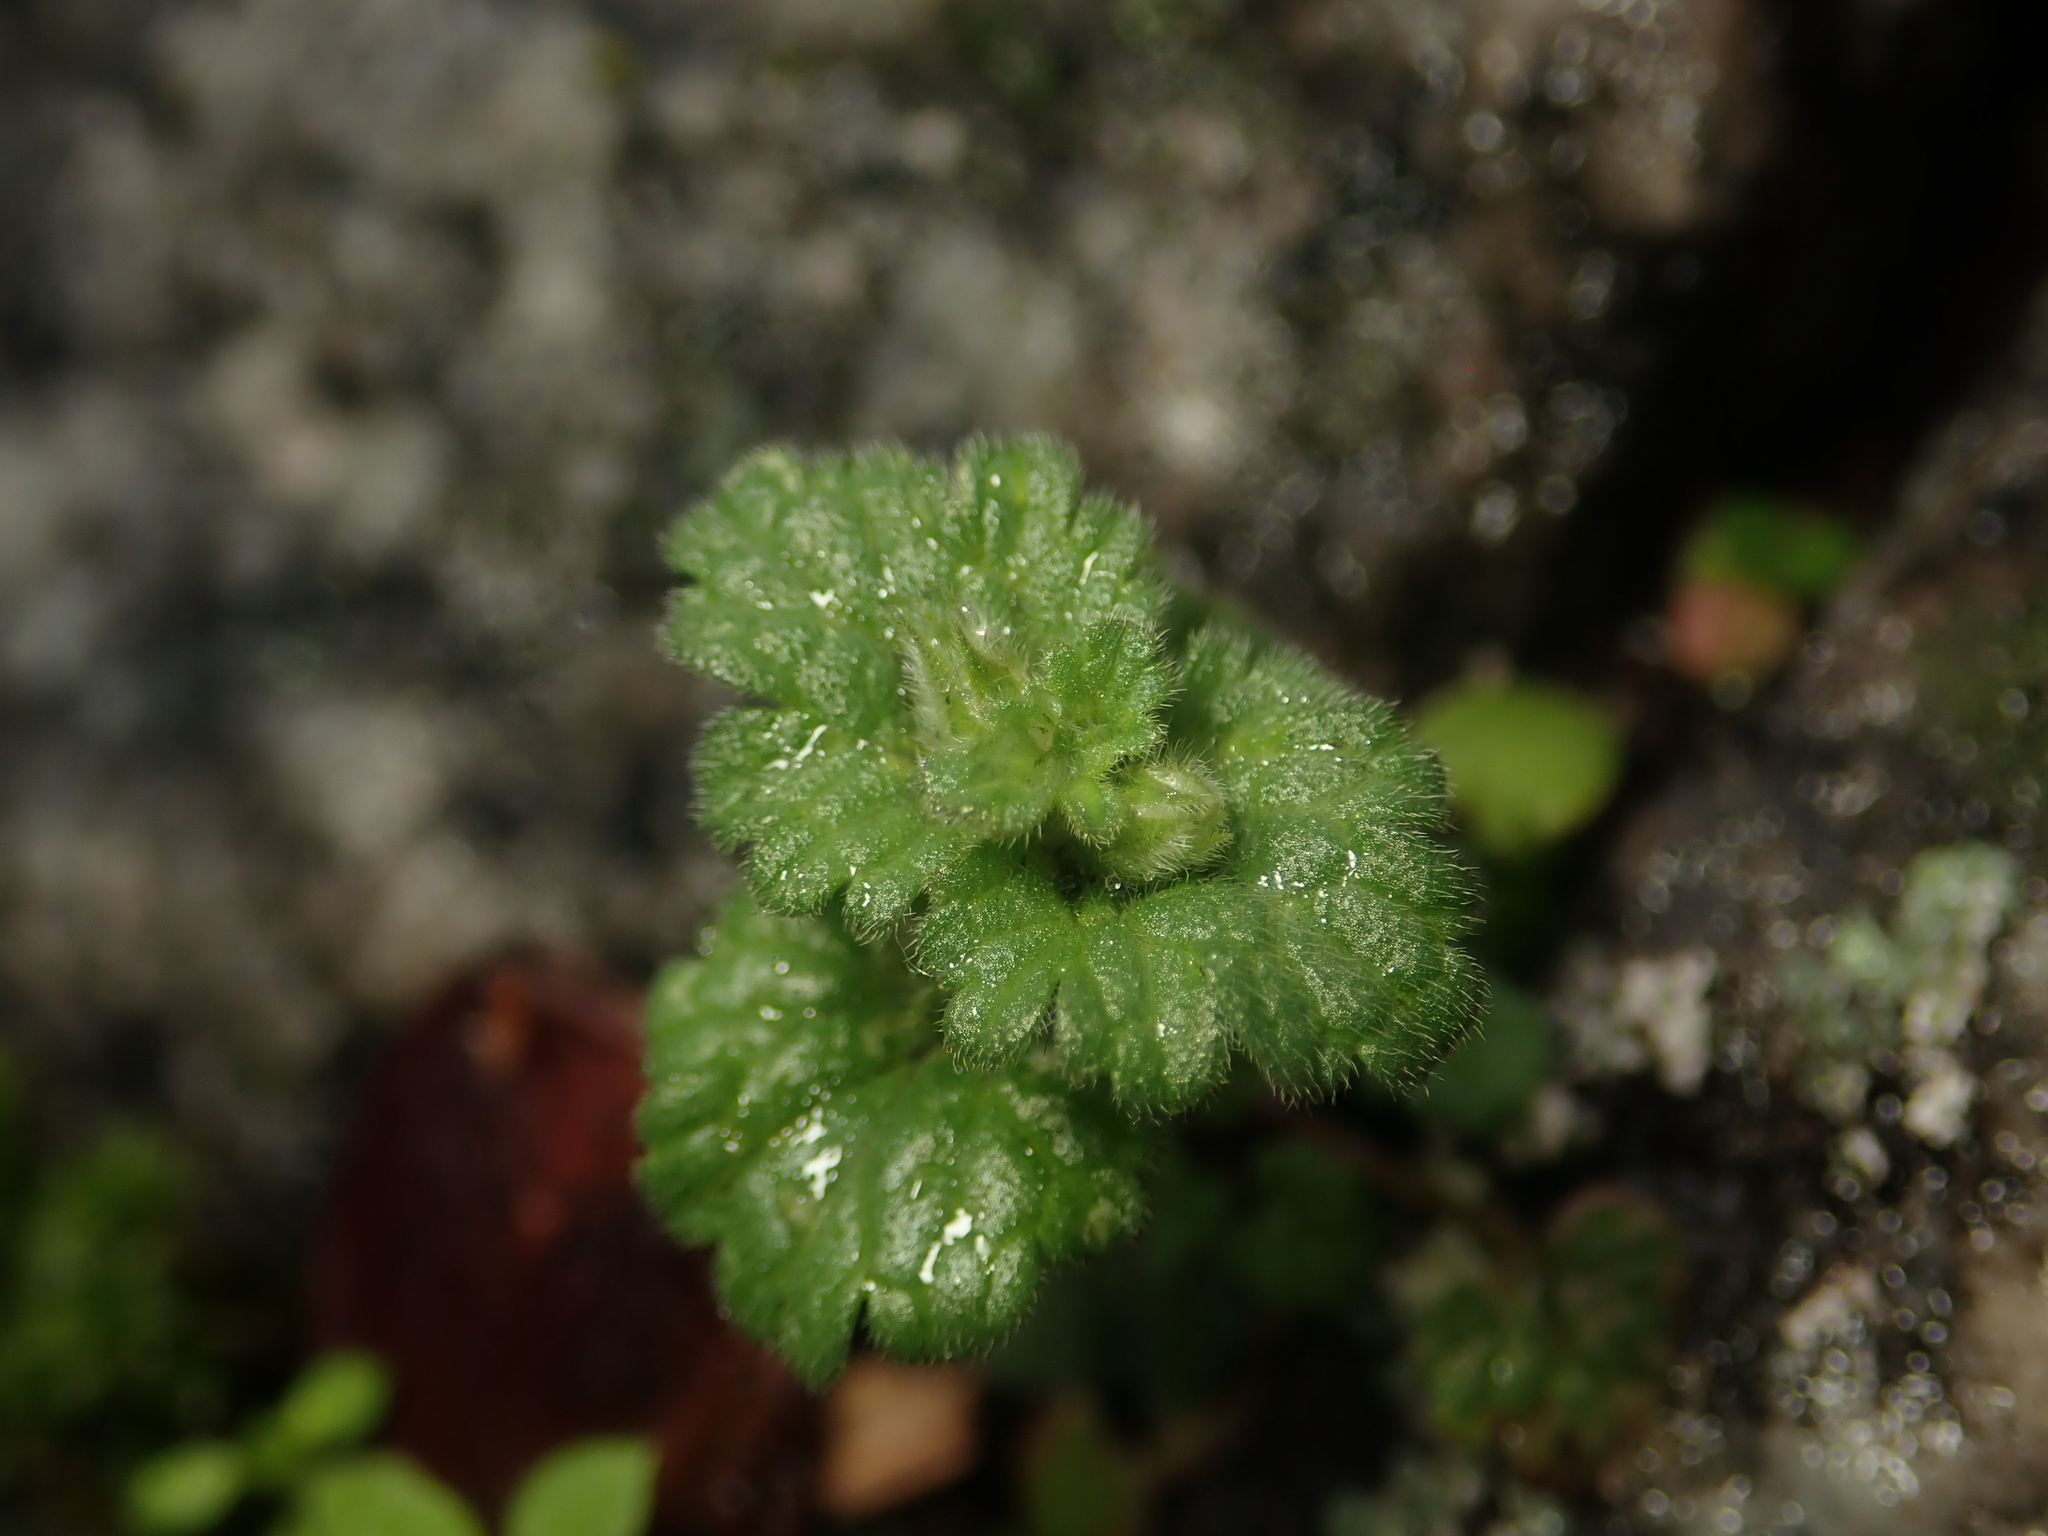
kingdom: Plantae
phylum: Tracheophyta
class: Magnoliopsida
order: Lamiales
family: Lamiaceae
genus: Lamium
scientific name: Lamium amplexicaule
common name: Henbit dead-nettle
